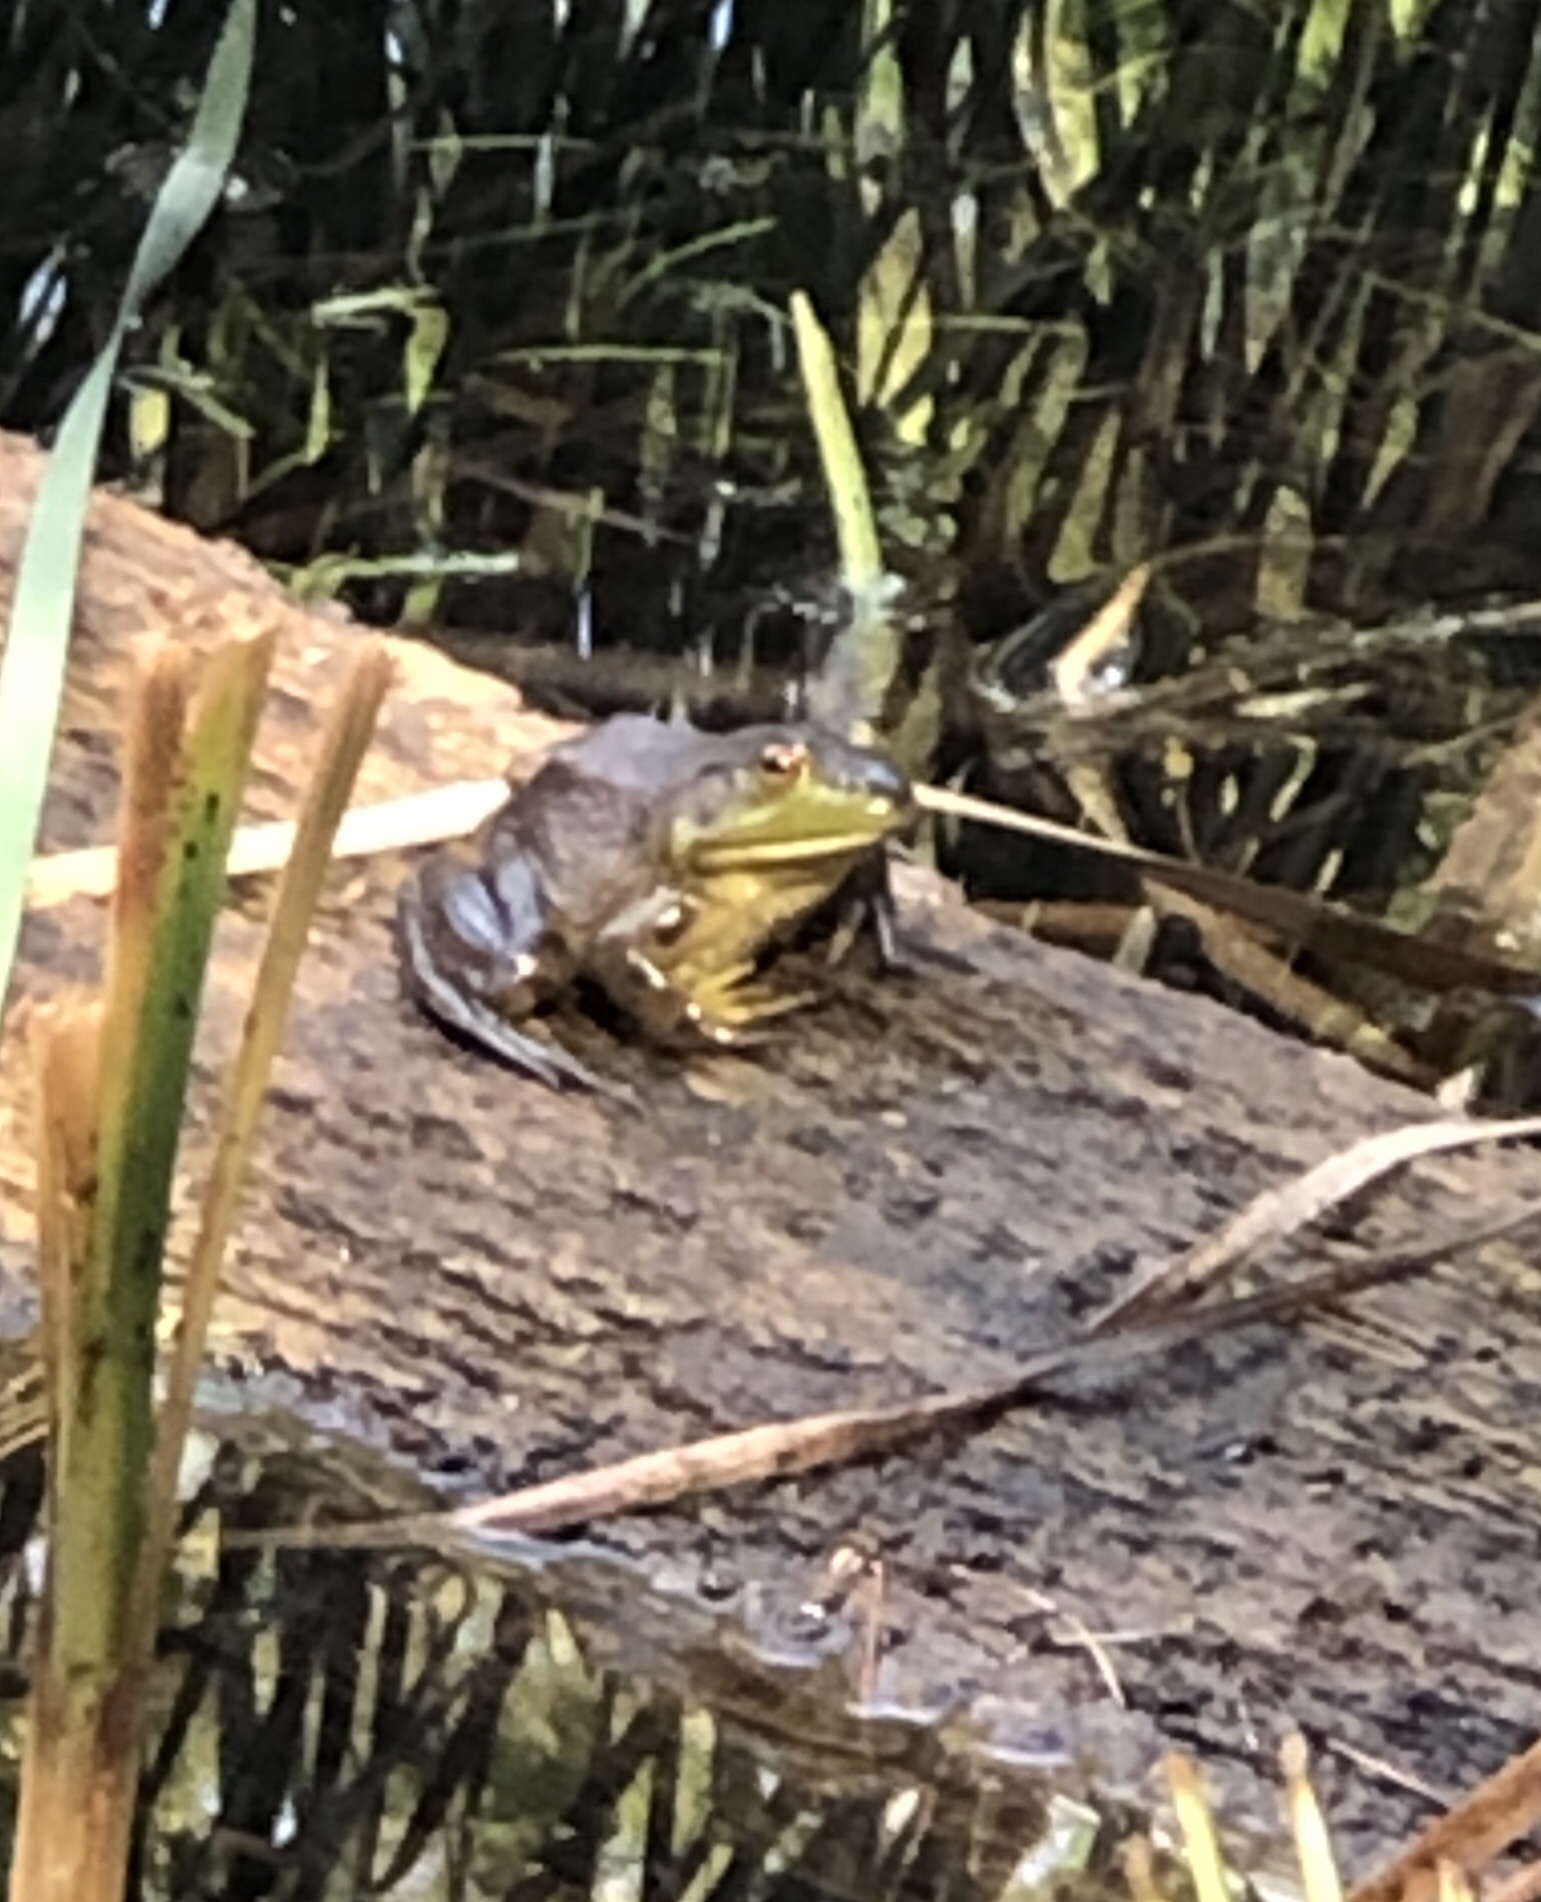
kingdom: Animalia
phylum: Chordata
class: Amphibia
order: Anura
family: Ranidae
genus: Lithobates
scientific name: Lithobates catesbeianus
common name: American bullfrog
